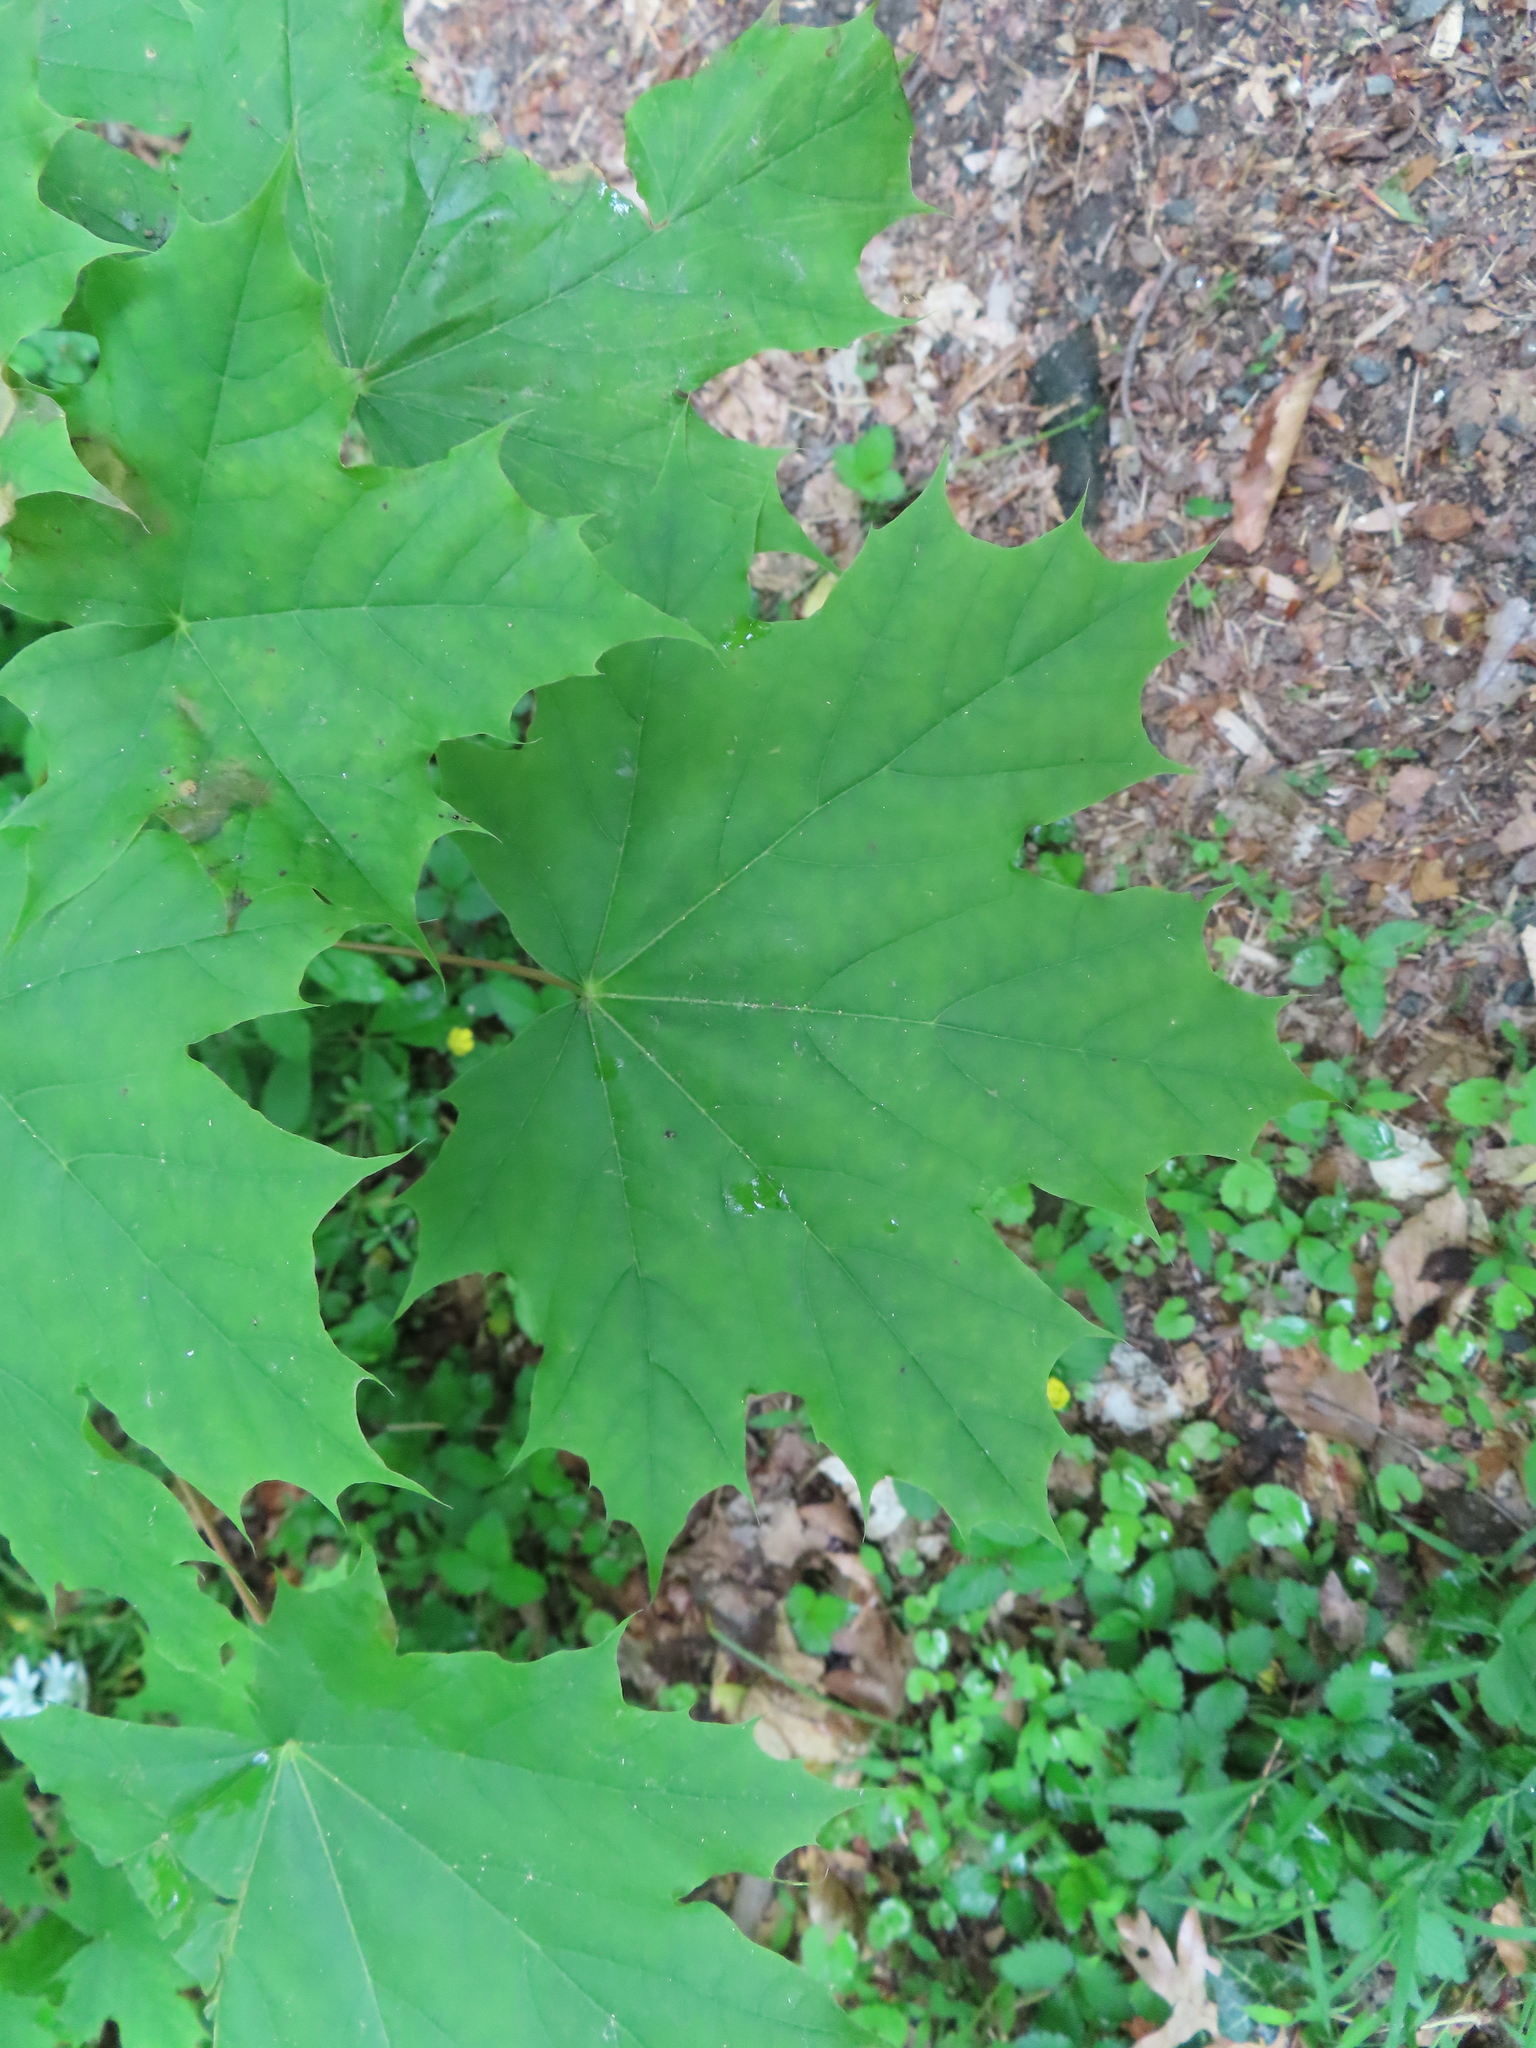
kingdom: Plantae
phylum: Tracheophyta
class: Magnoliopsida
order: Sapindales
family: Sapindaceae
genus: Acer
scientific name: Acer platanoides
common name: Norway maple
